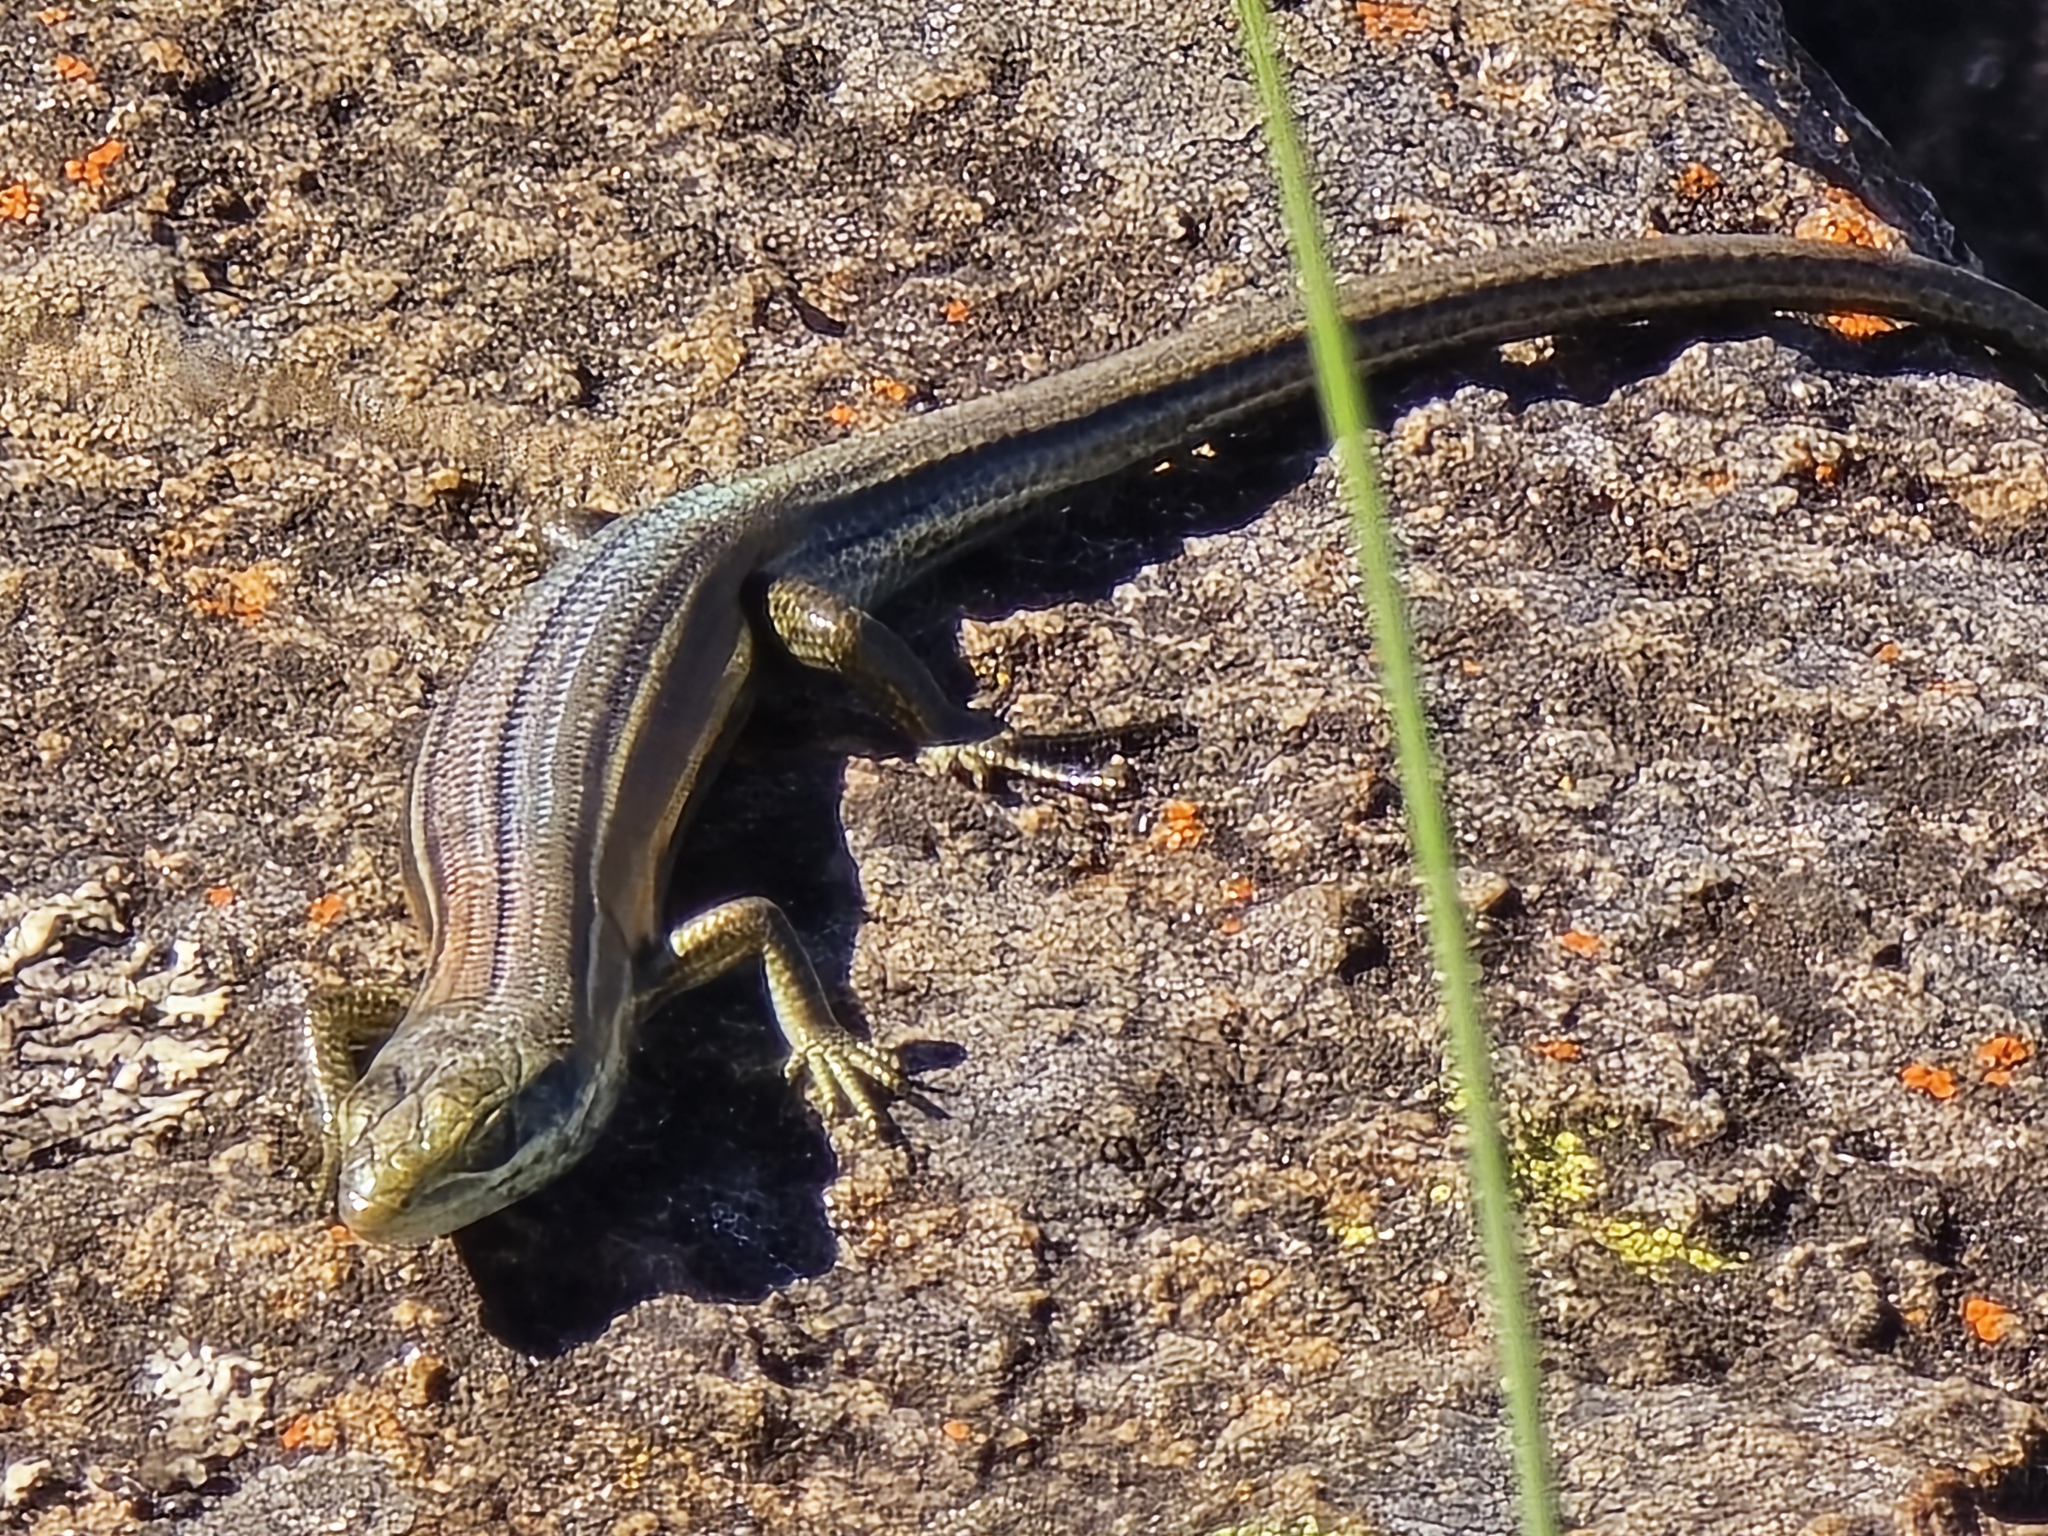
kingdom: Animalia
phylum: Chordata
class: Squamata
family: Scincidae
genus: Pseudemoia
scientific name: Pseudemoia pagenstecheri
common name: Southern grass tussock skink
